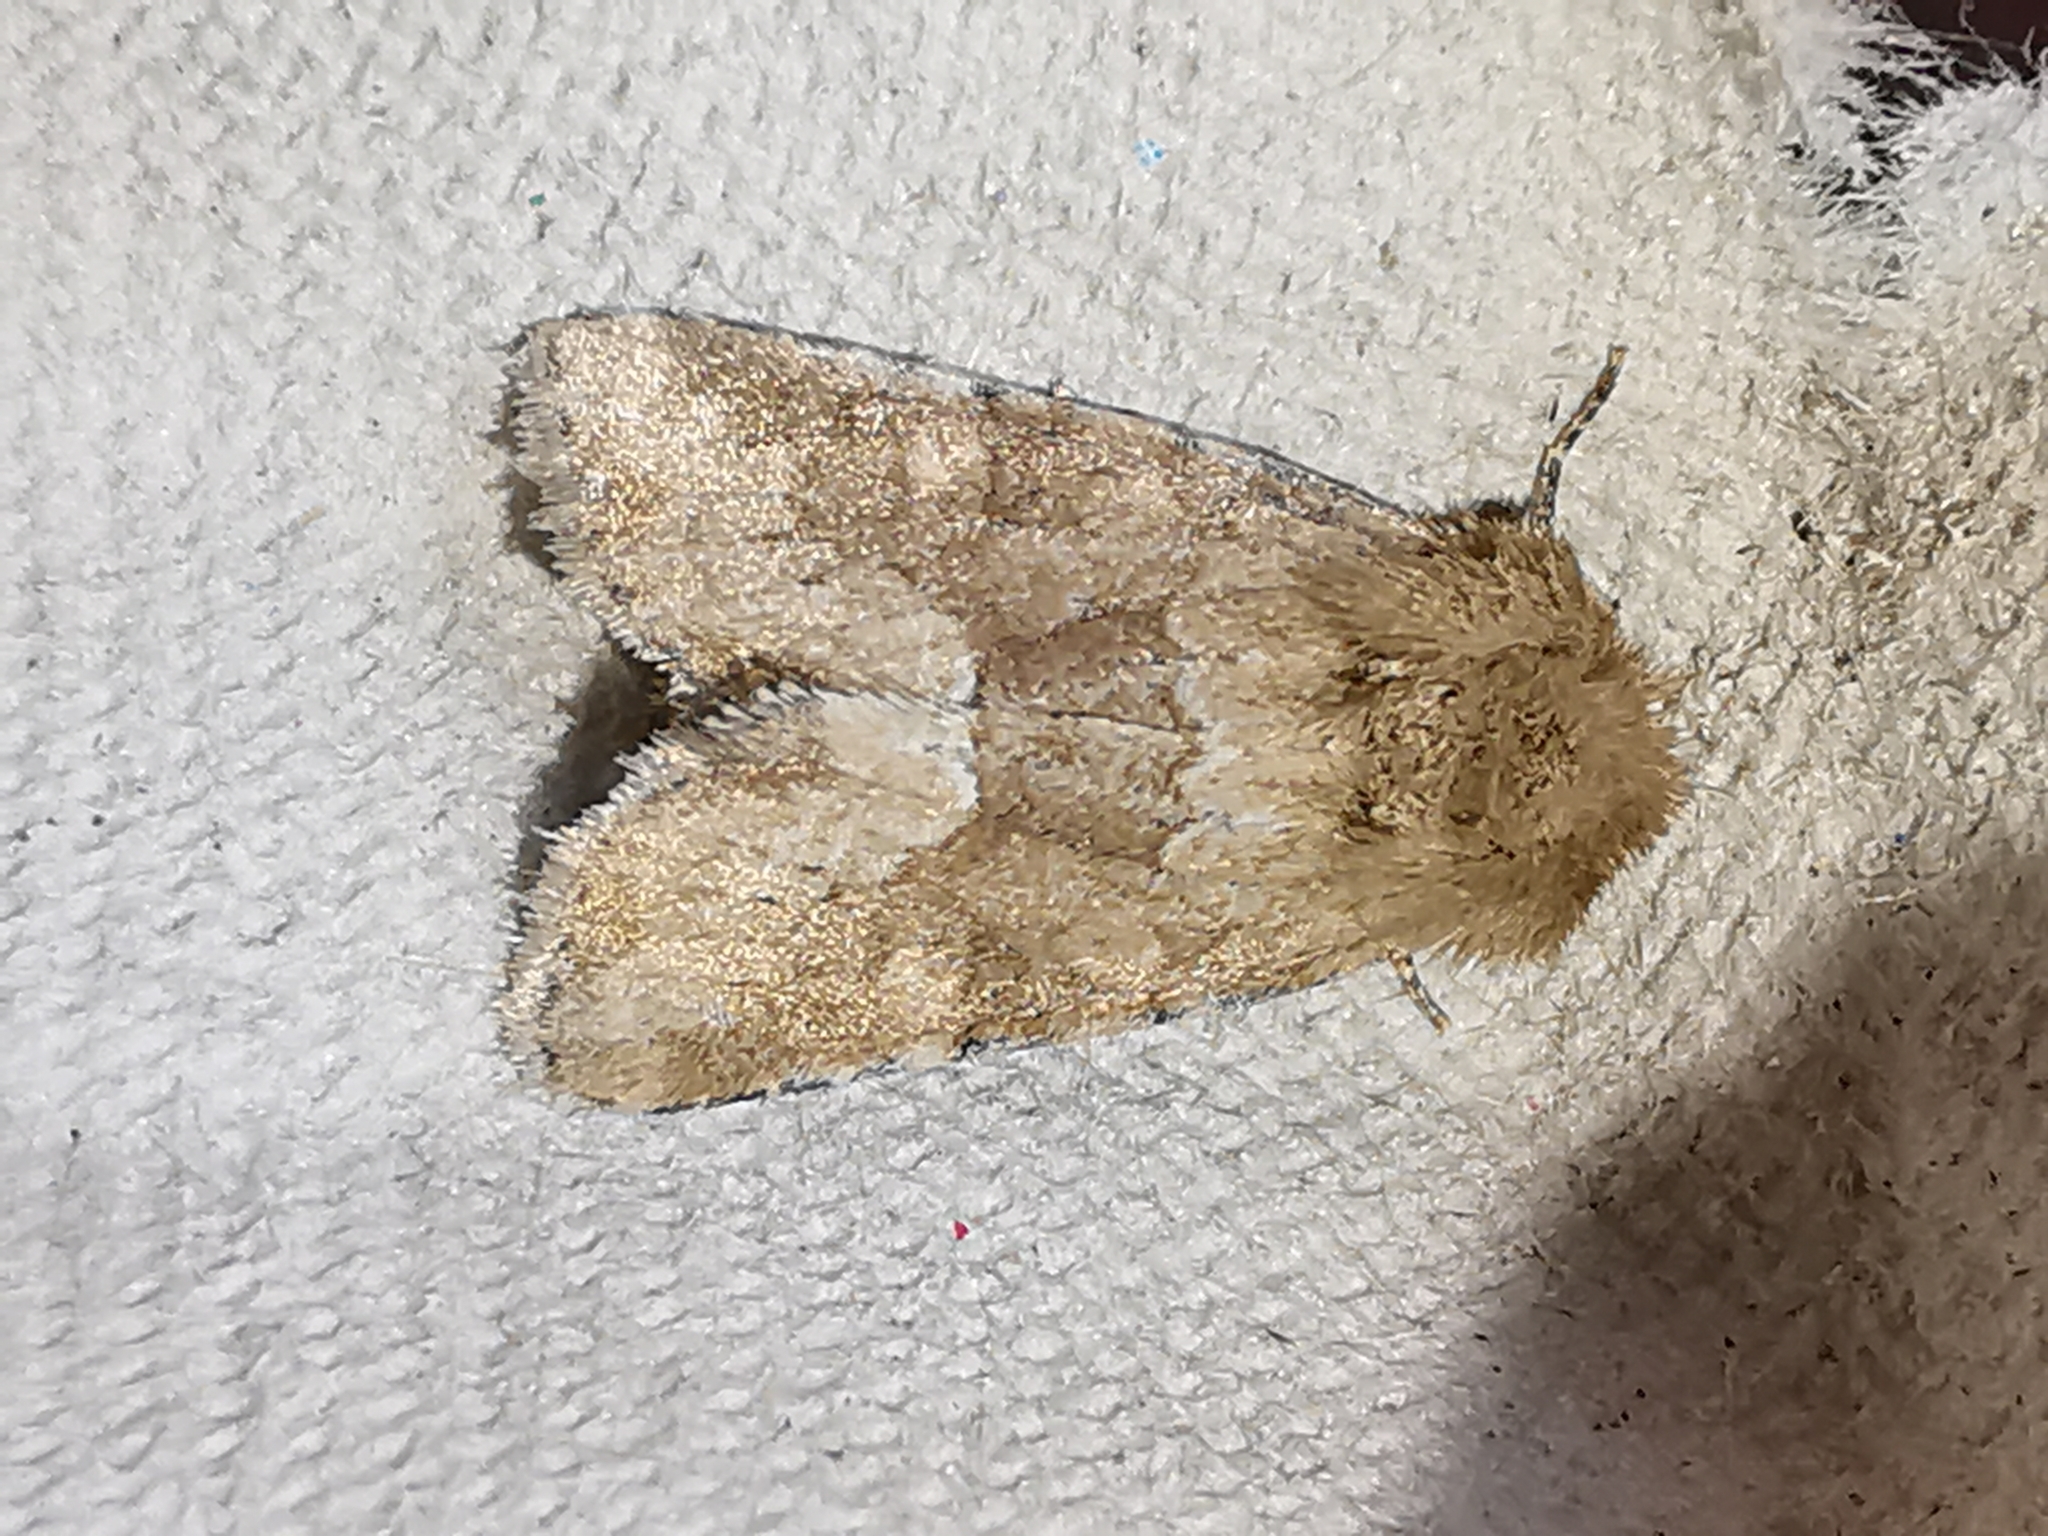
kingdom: Animalia
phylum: Arthropoda
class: Insecta
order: Lepidoptera
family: Noctuidae
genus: Oligia
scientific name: Oligia fasciuncula
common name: Middle-barred minor
